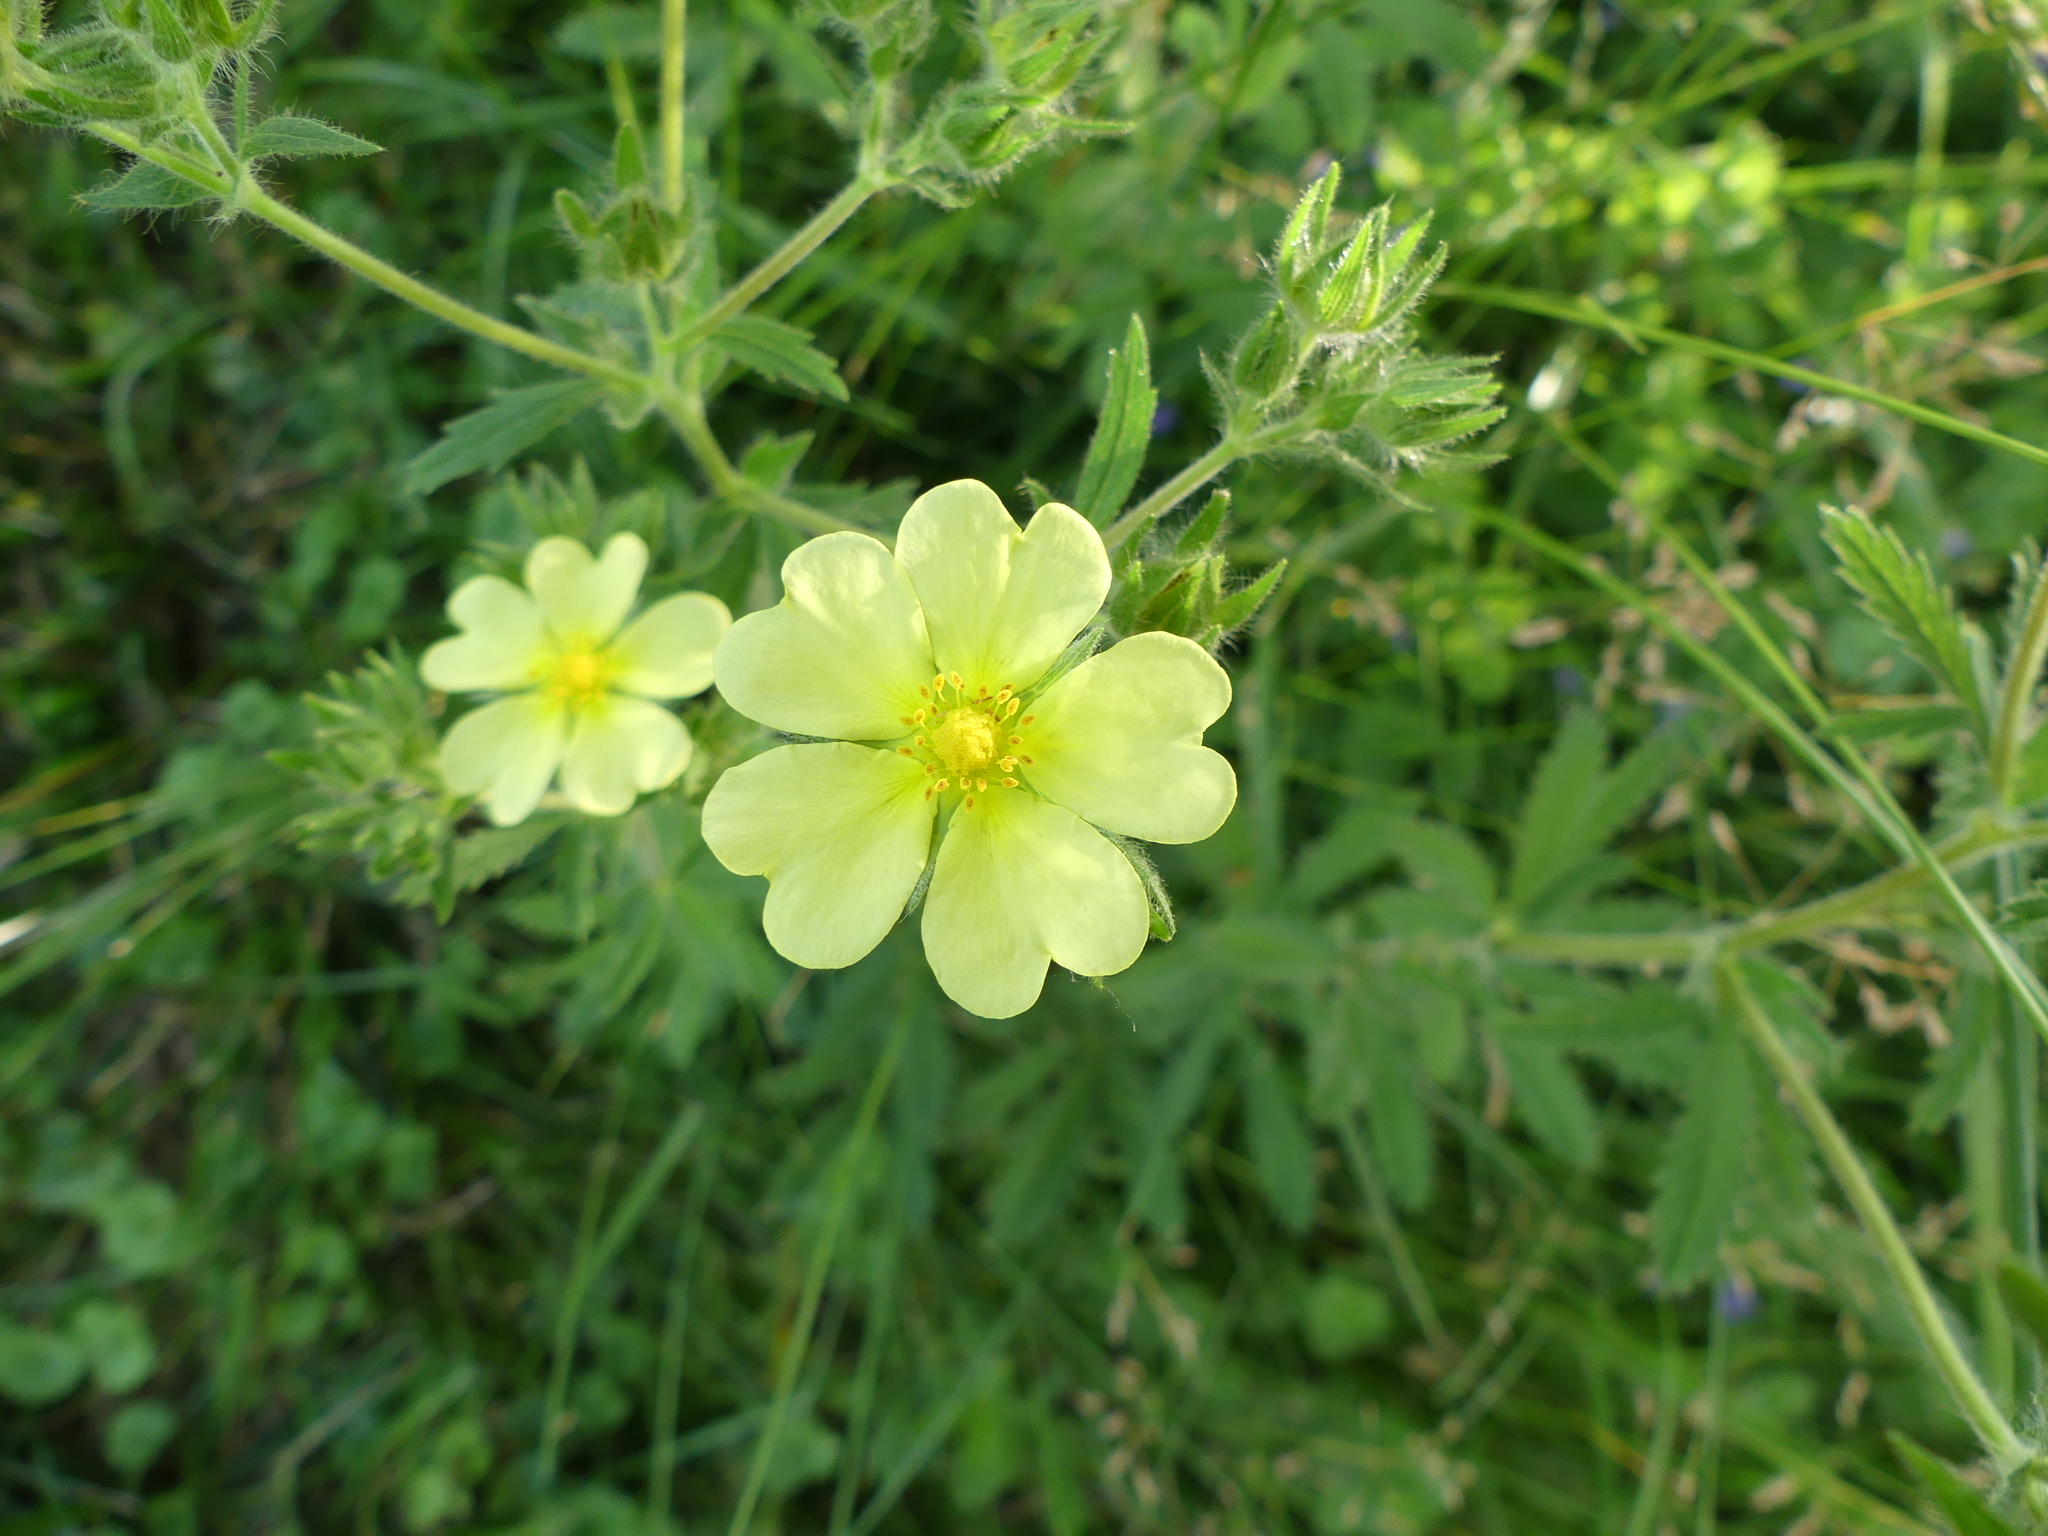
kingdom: Plantae
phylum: Tracheophyta
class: Magnoliopsida
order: Rosales
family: Rosaceae
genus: Potentilla
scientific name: Potentilla recta
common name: Sulphur cinquefoil
